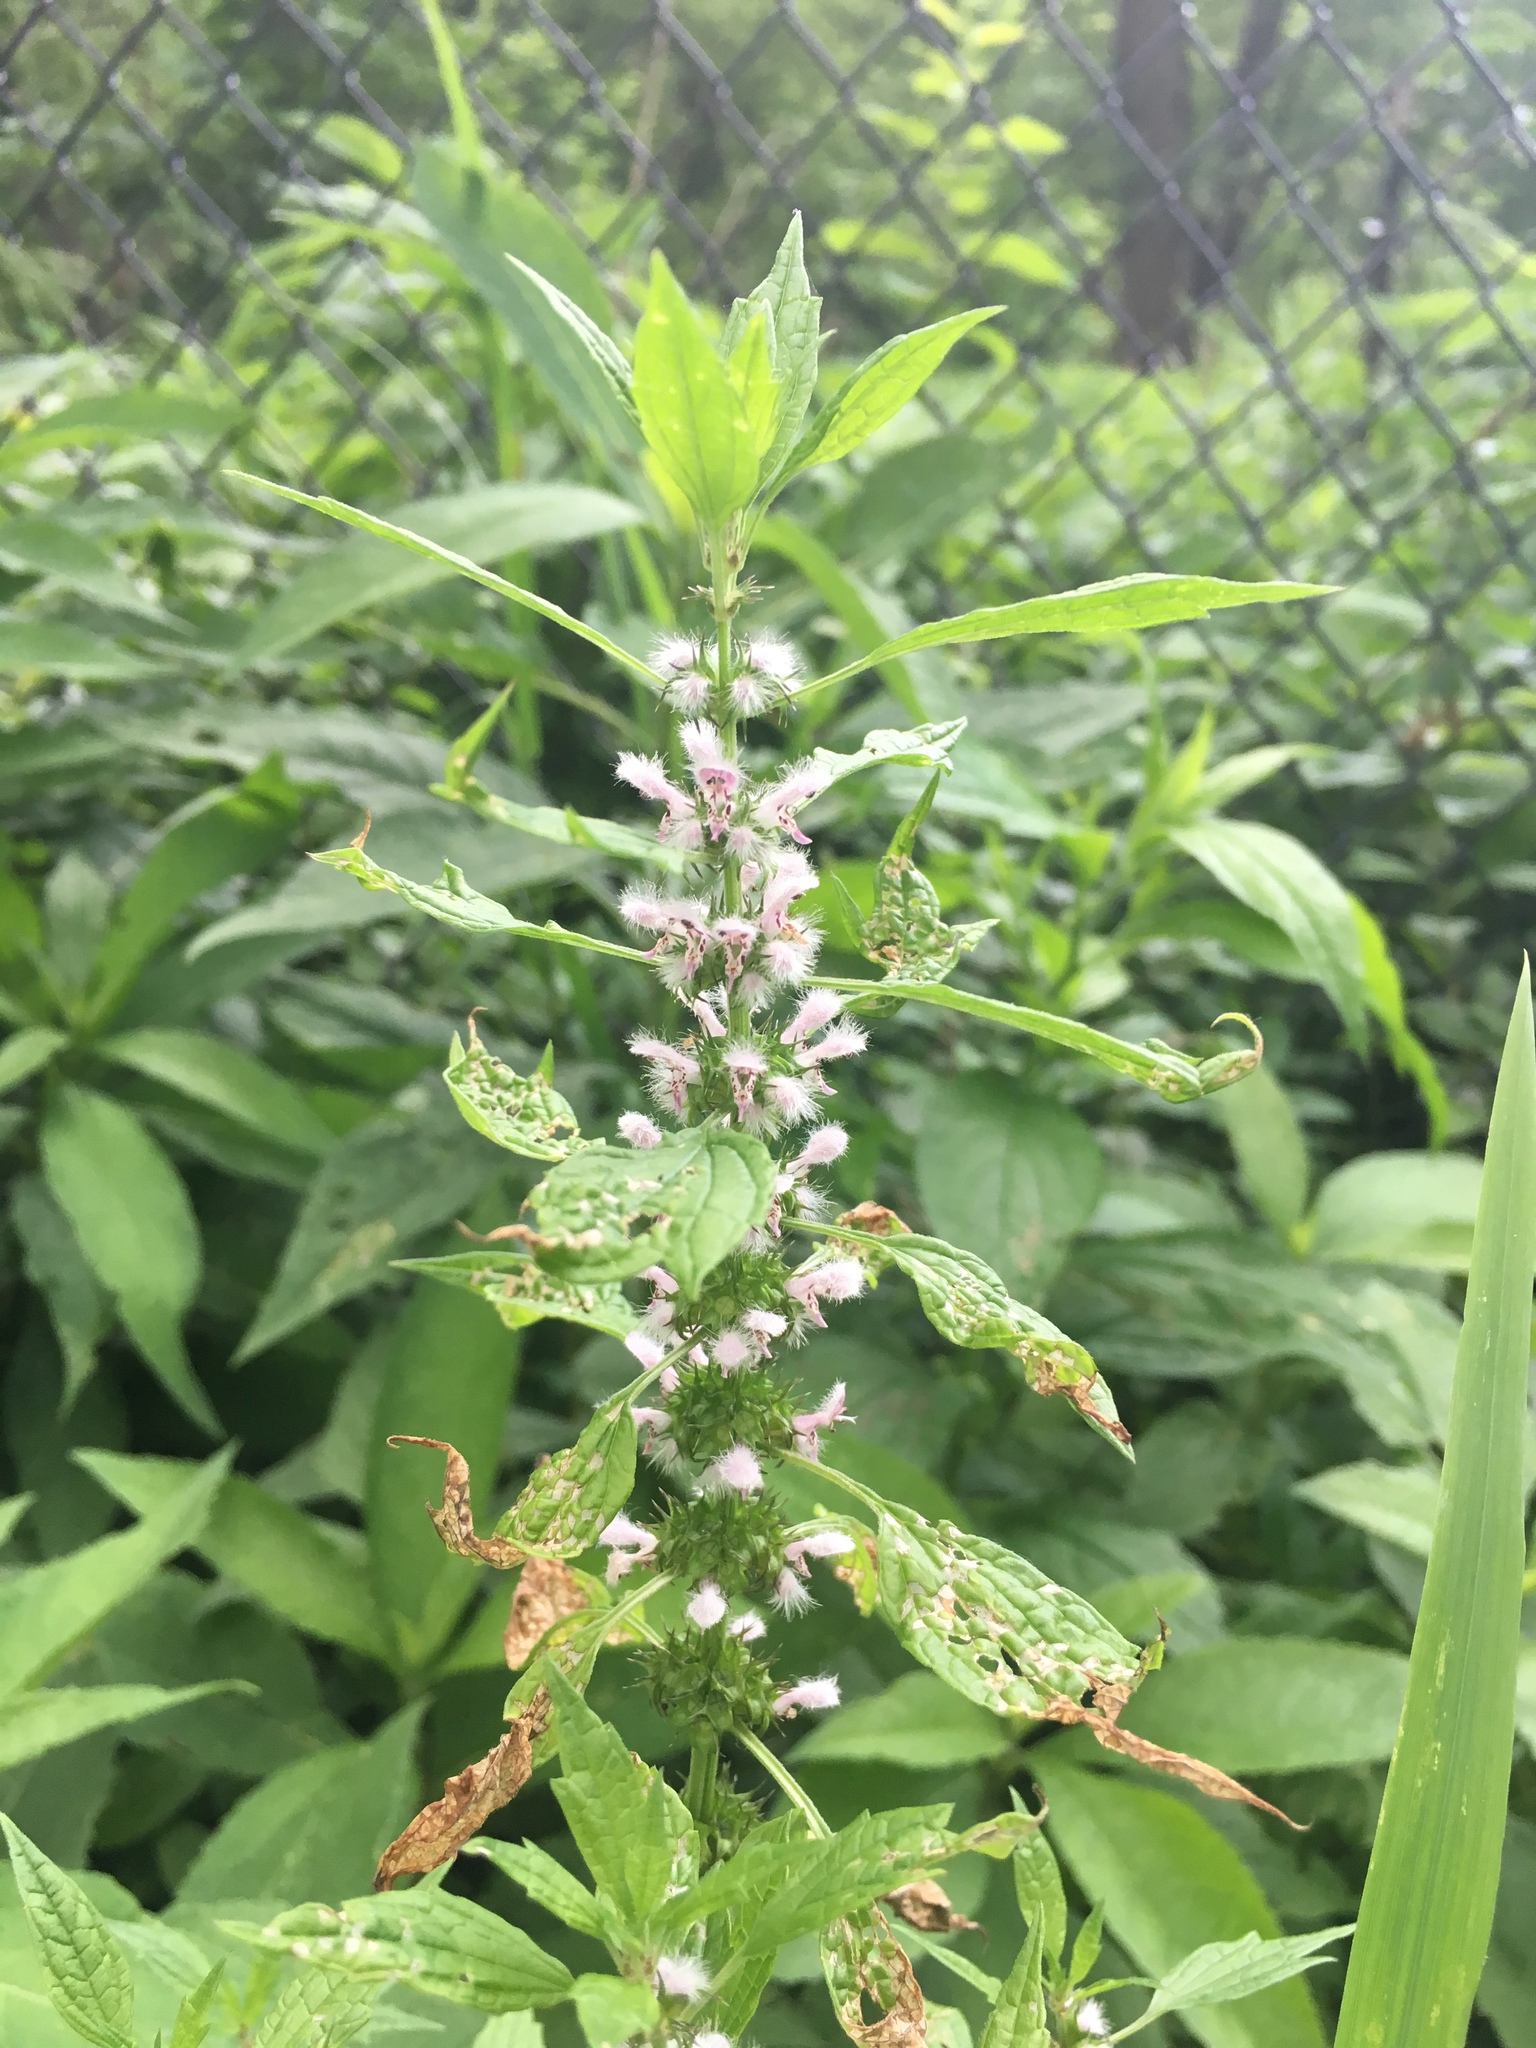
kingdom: Plantae
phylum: Tracheophyta
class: Magnoliopsida
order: Lamiales
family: Lamiaceae
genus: Leonurus
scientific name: Leonurus cardiaca
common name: Motherwort
